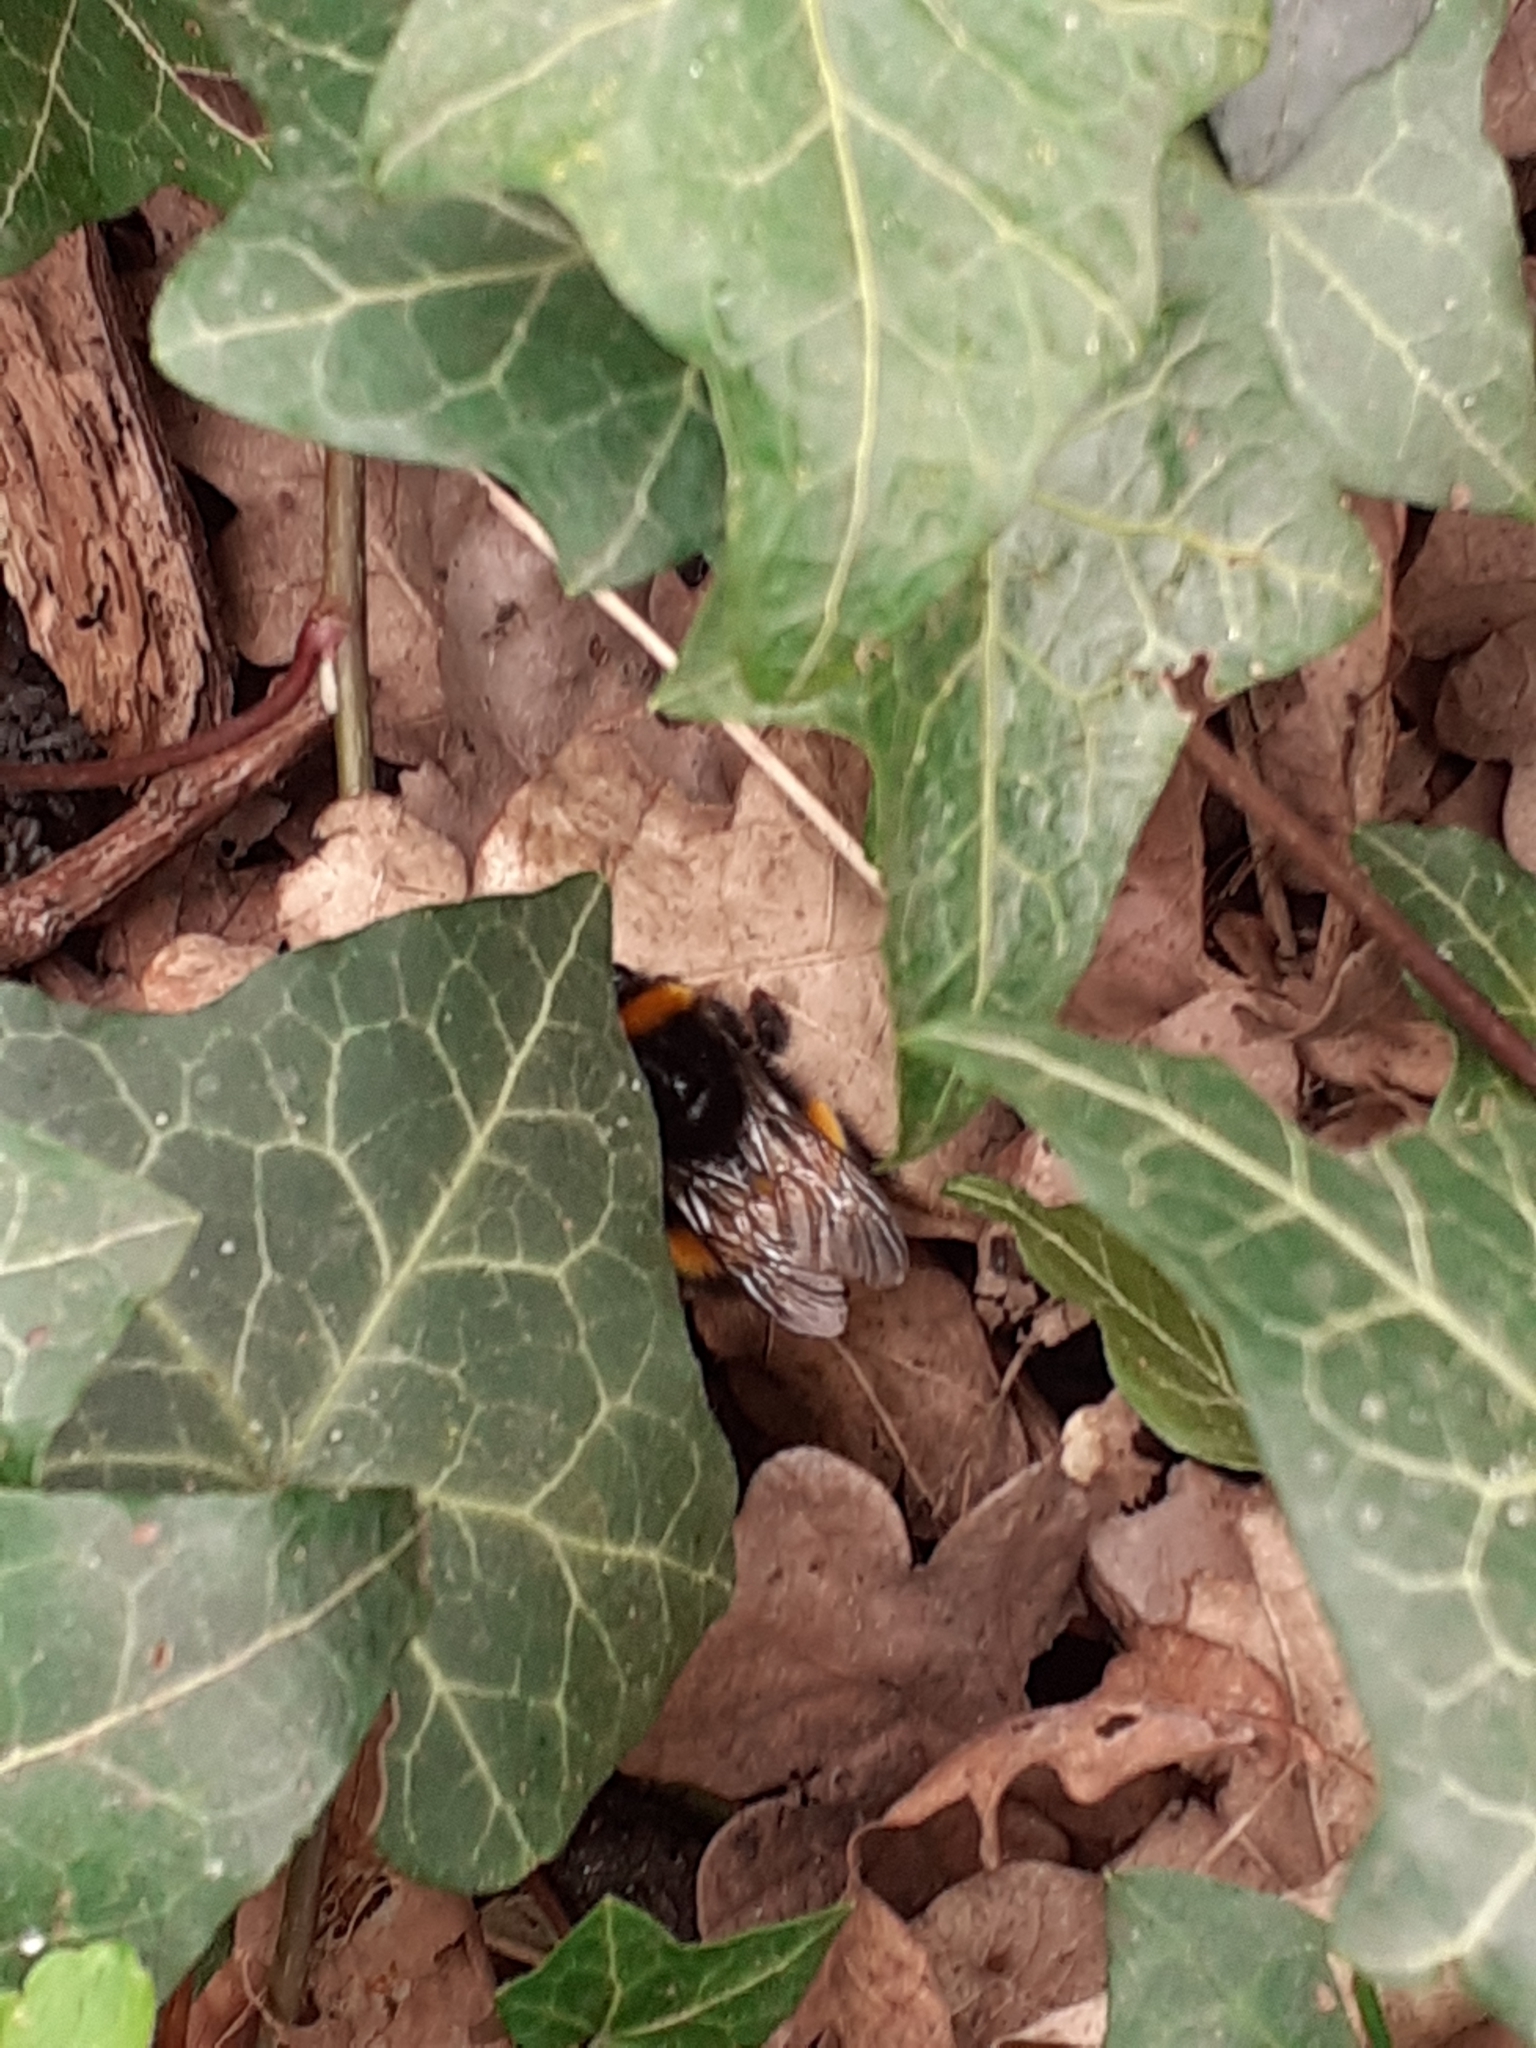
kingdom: Animalia
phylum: Arthropoda
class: Insecta
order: Hymenoptera
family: Apidae
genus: Bombus
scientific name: Bombus terrestris
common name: Buff-tailed bumblebee
